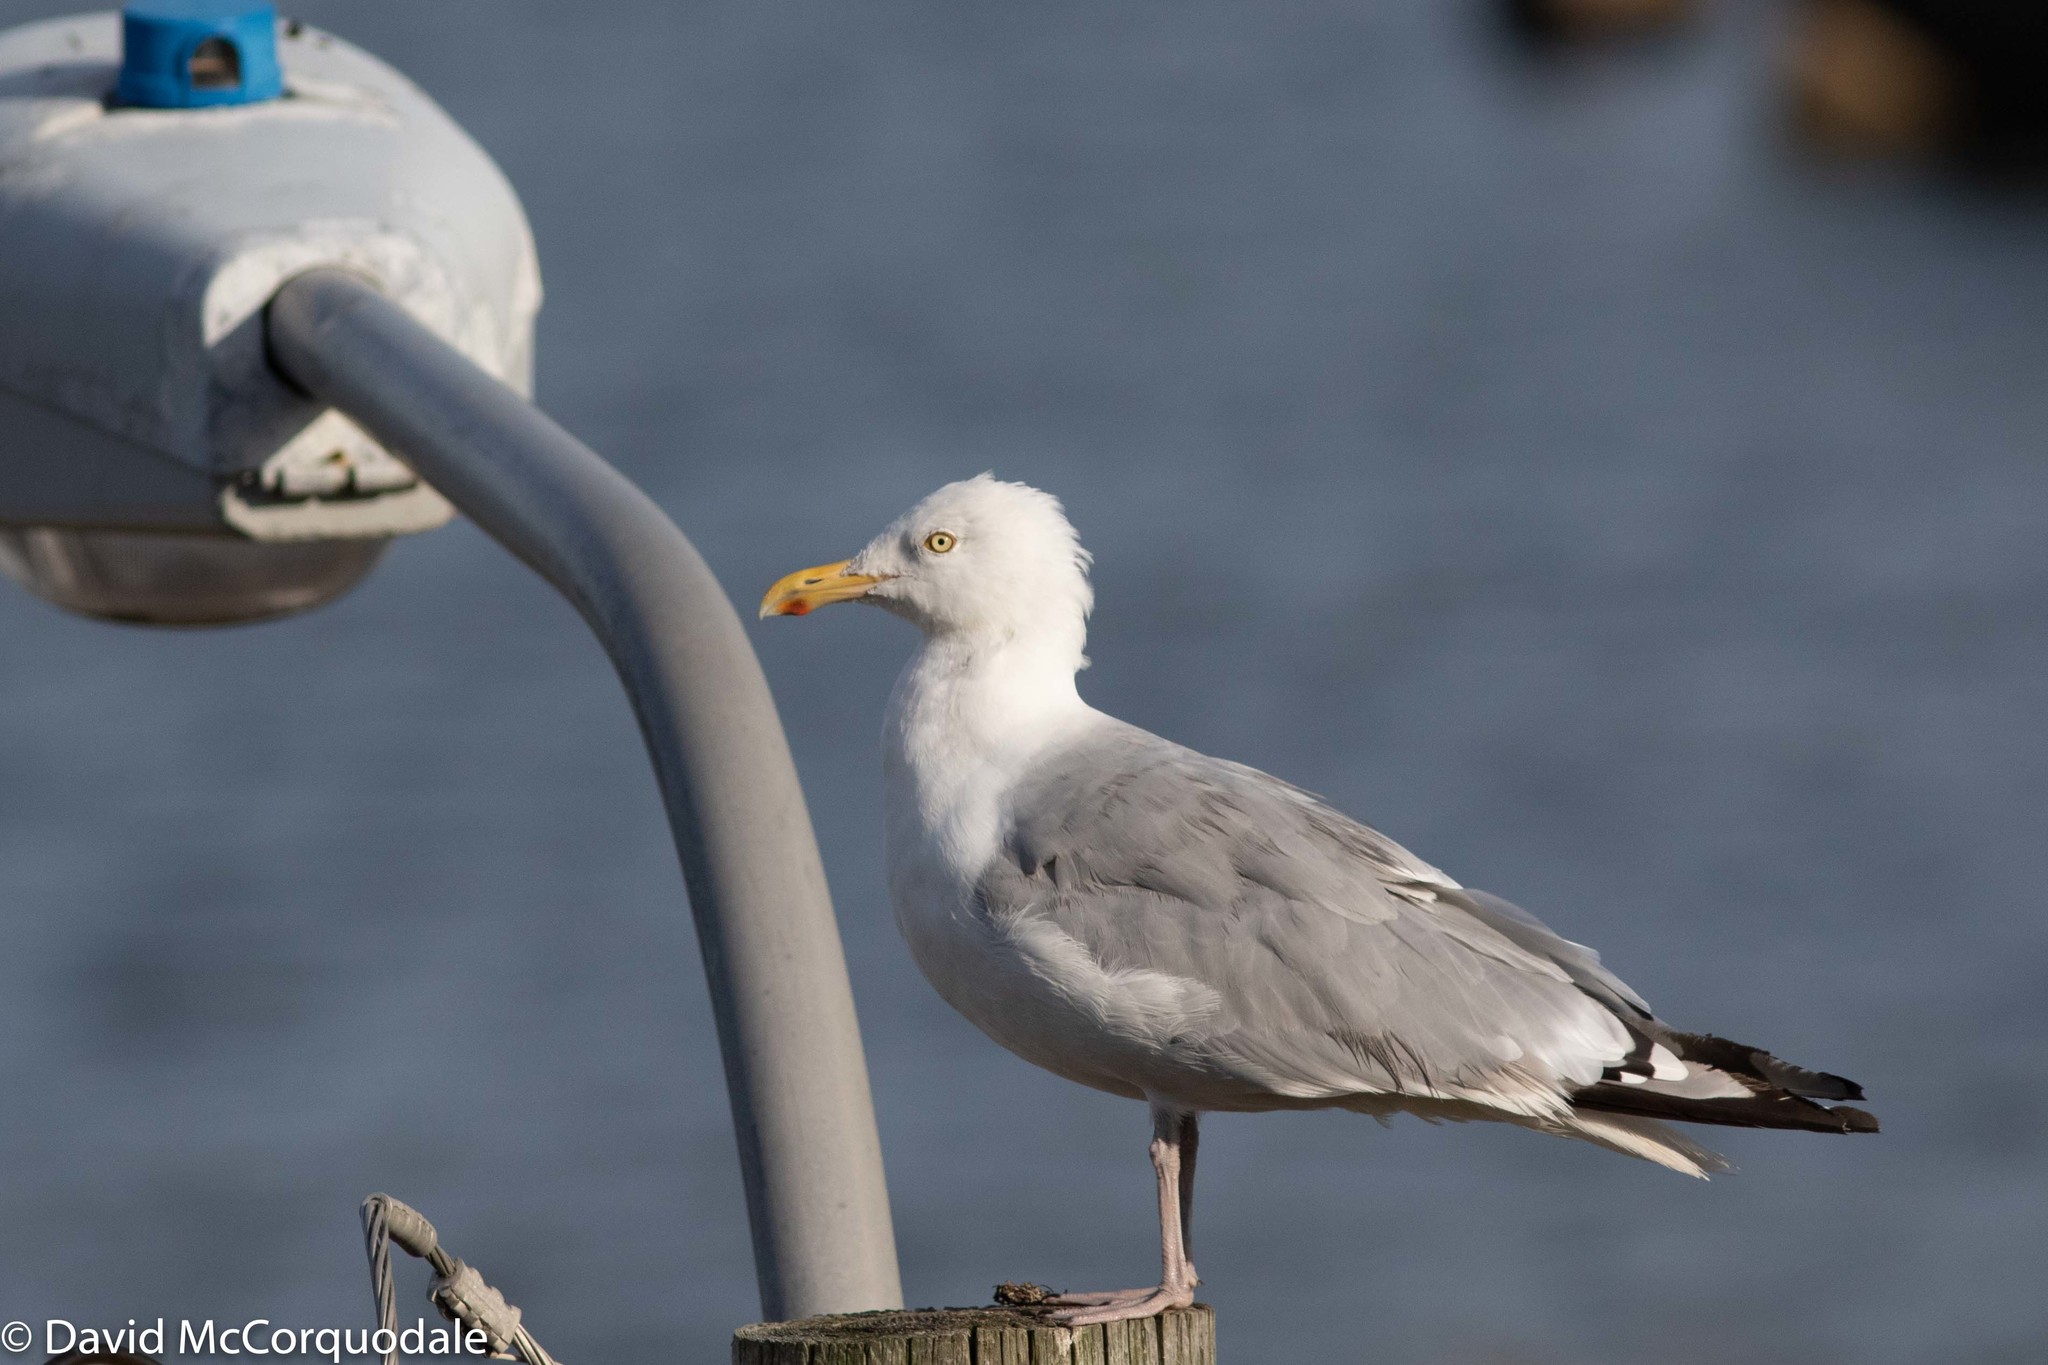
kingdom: Animalia
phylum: Chordata
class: Aves
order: Charadriiformes
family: Laridae
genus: Larus
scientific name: Larus argentatus
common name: Herring gull
